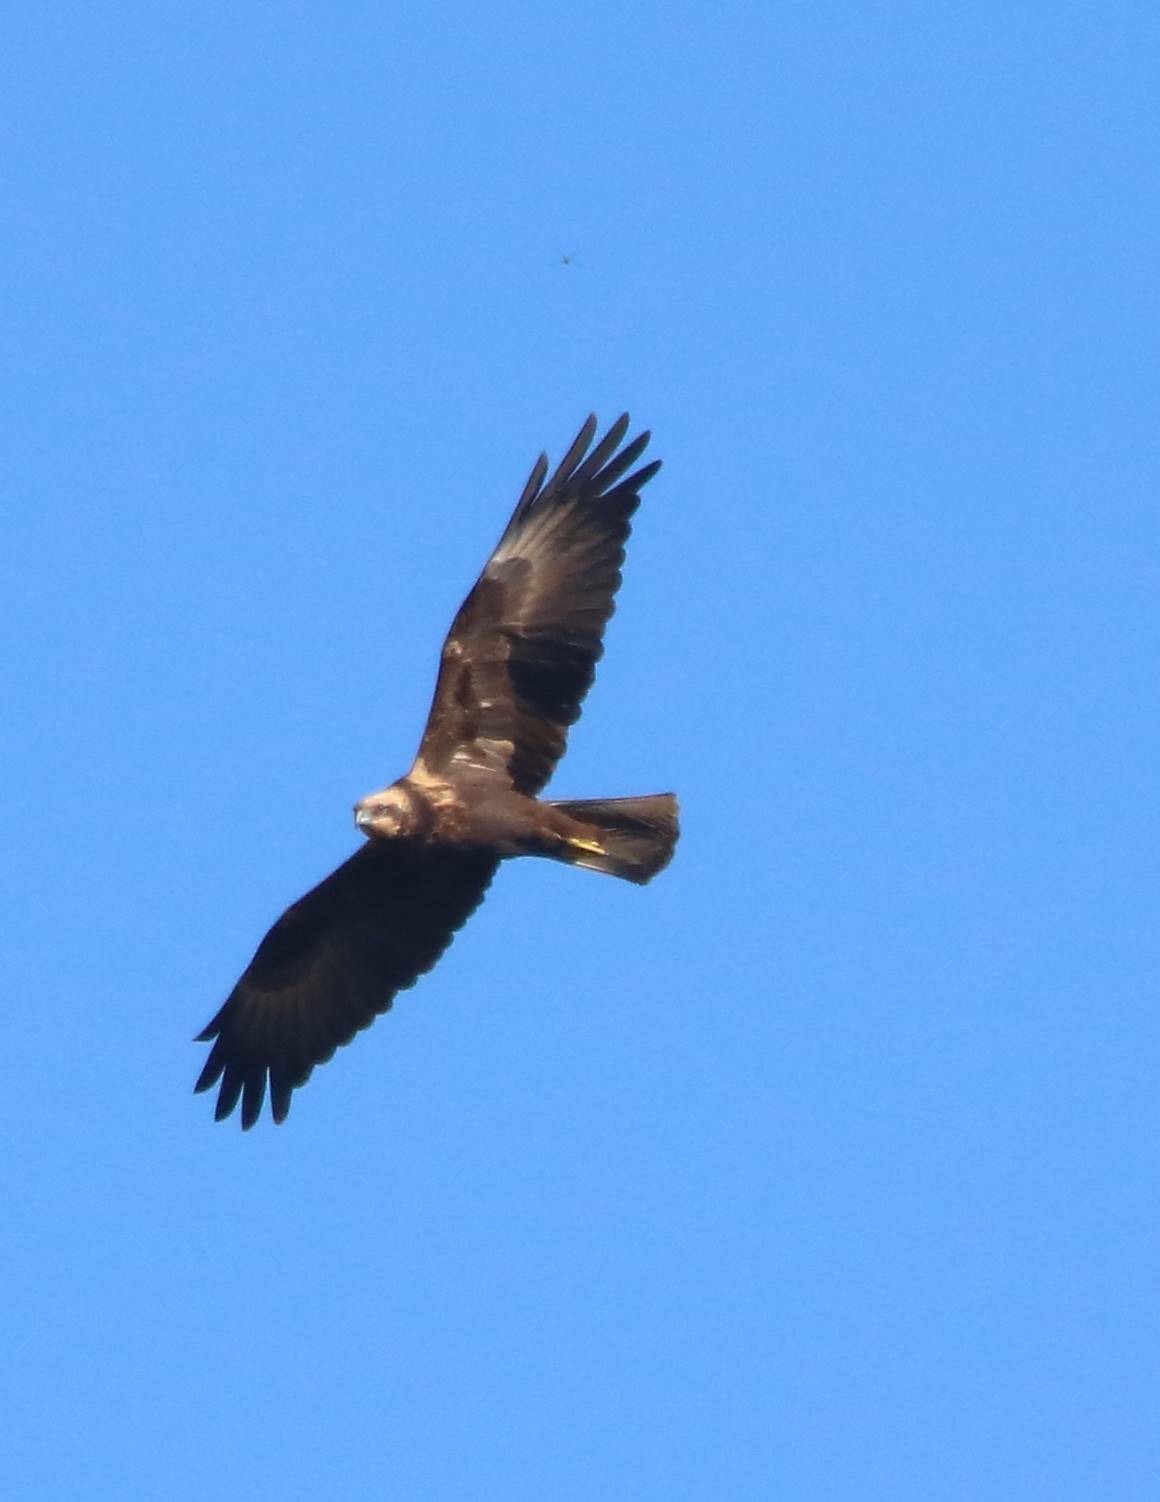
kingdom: Animalia
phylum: Chordata
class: Aves
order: Accipitriformes
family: Accipitridae
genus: Circus
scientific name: Circus aeruginosus
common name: Western marsh harrier
